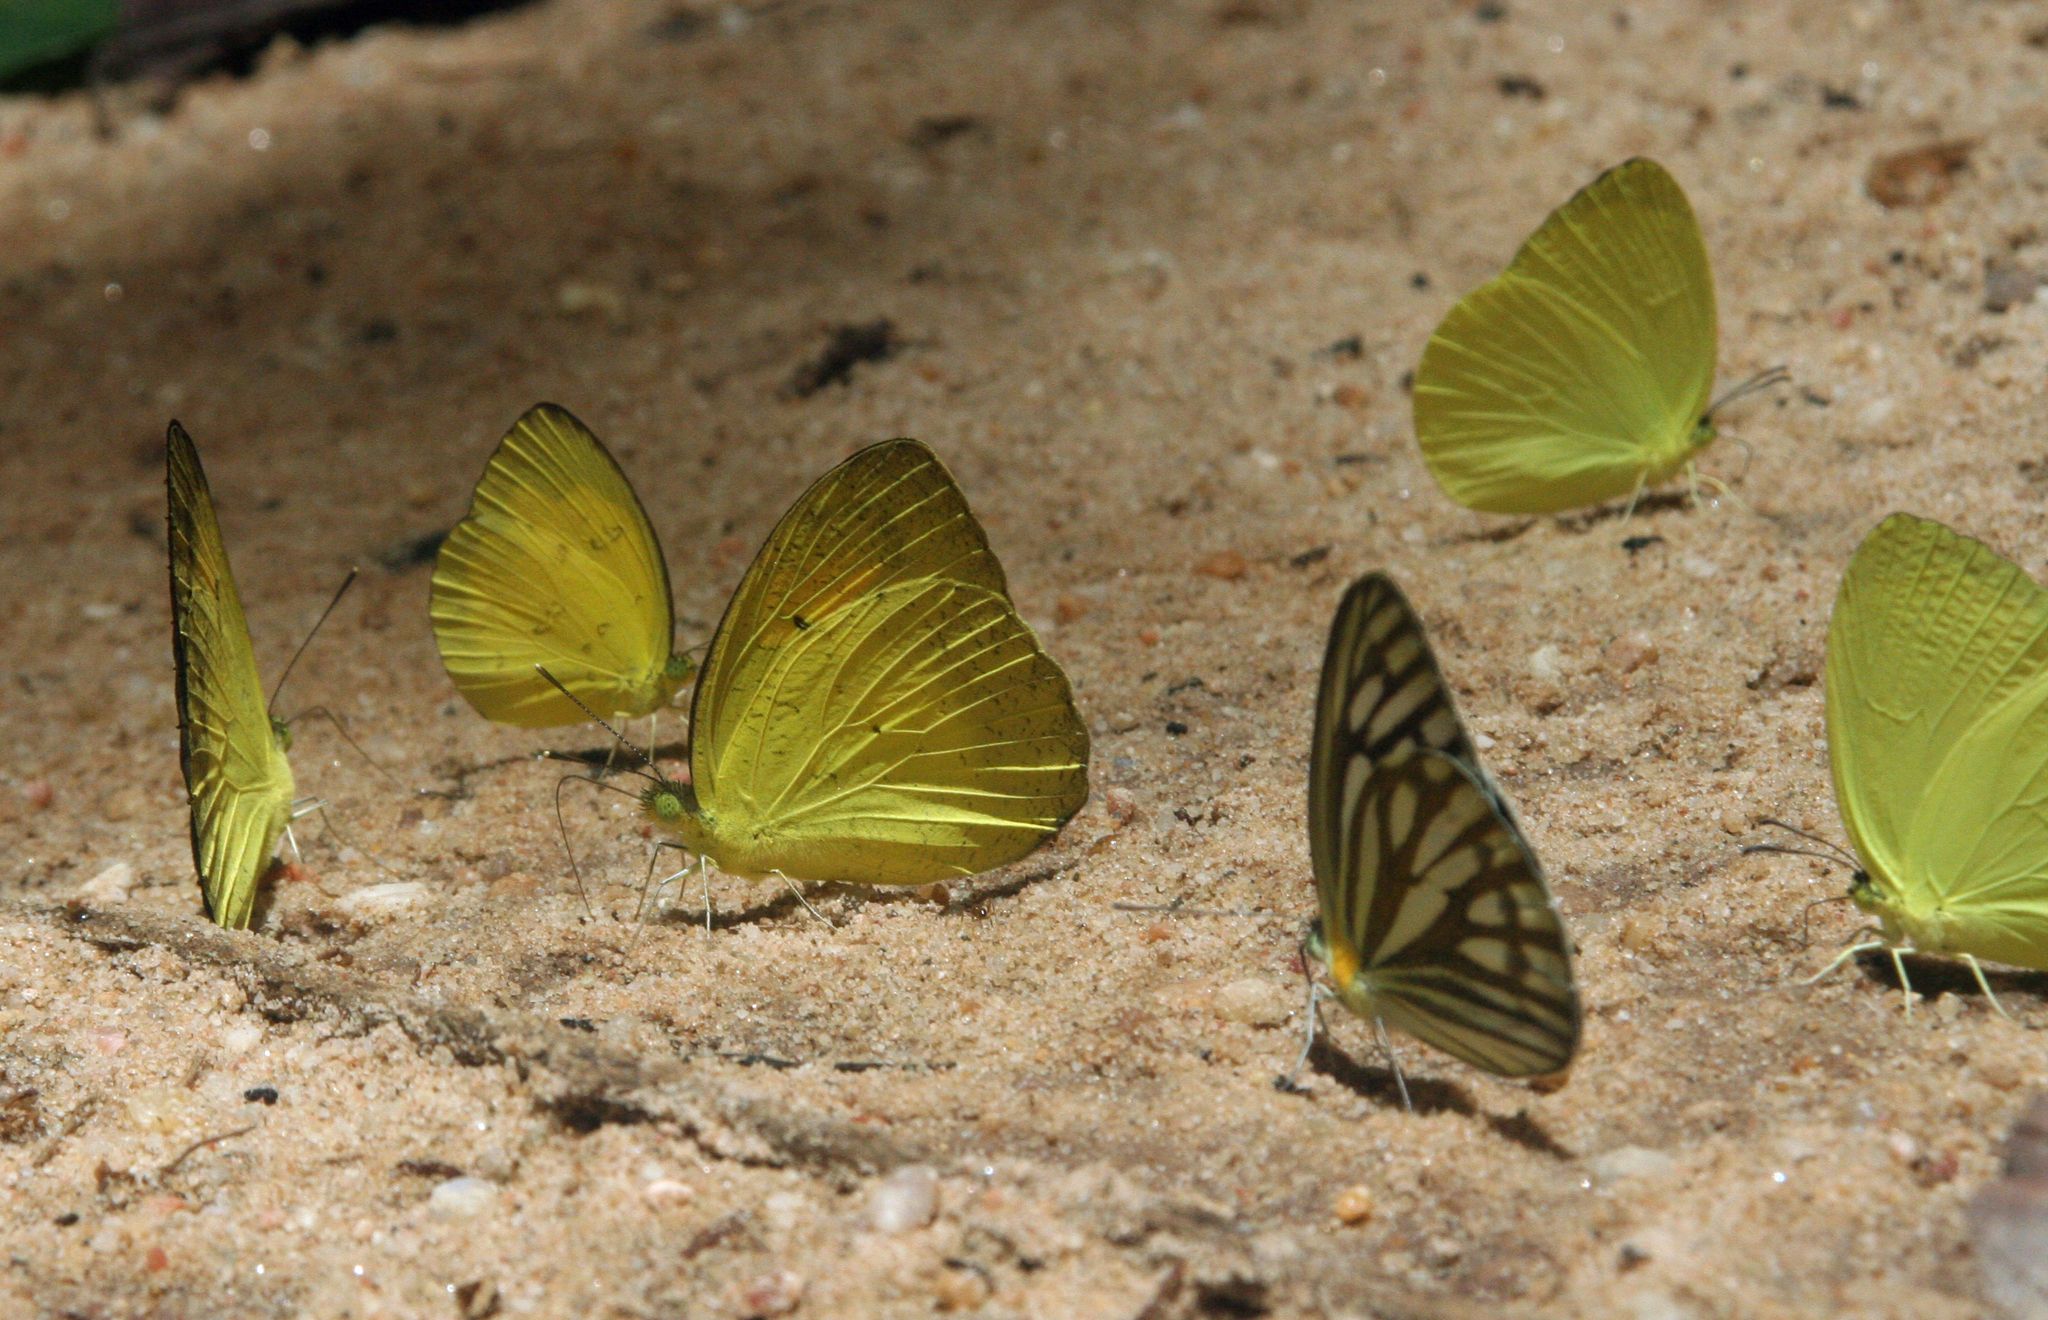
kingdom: Animalia
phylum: Arthropoda
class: Insecta
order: Lepidoptera
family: Pieridae
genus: Cepora
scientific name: Cepora nerissa
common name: Common gull
